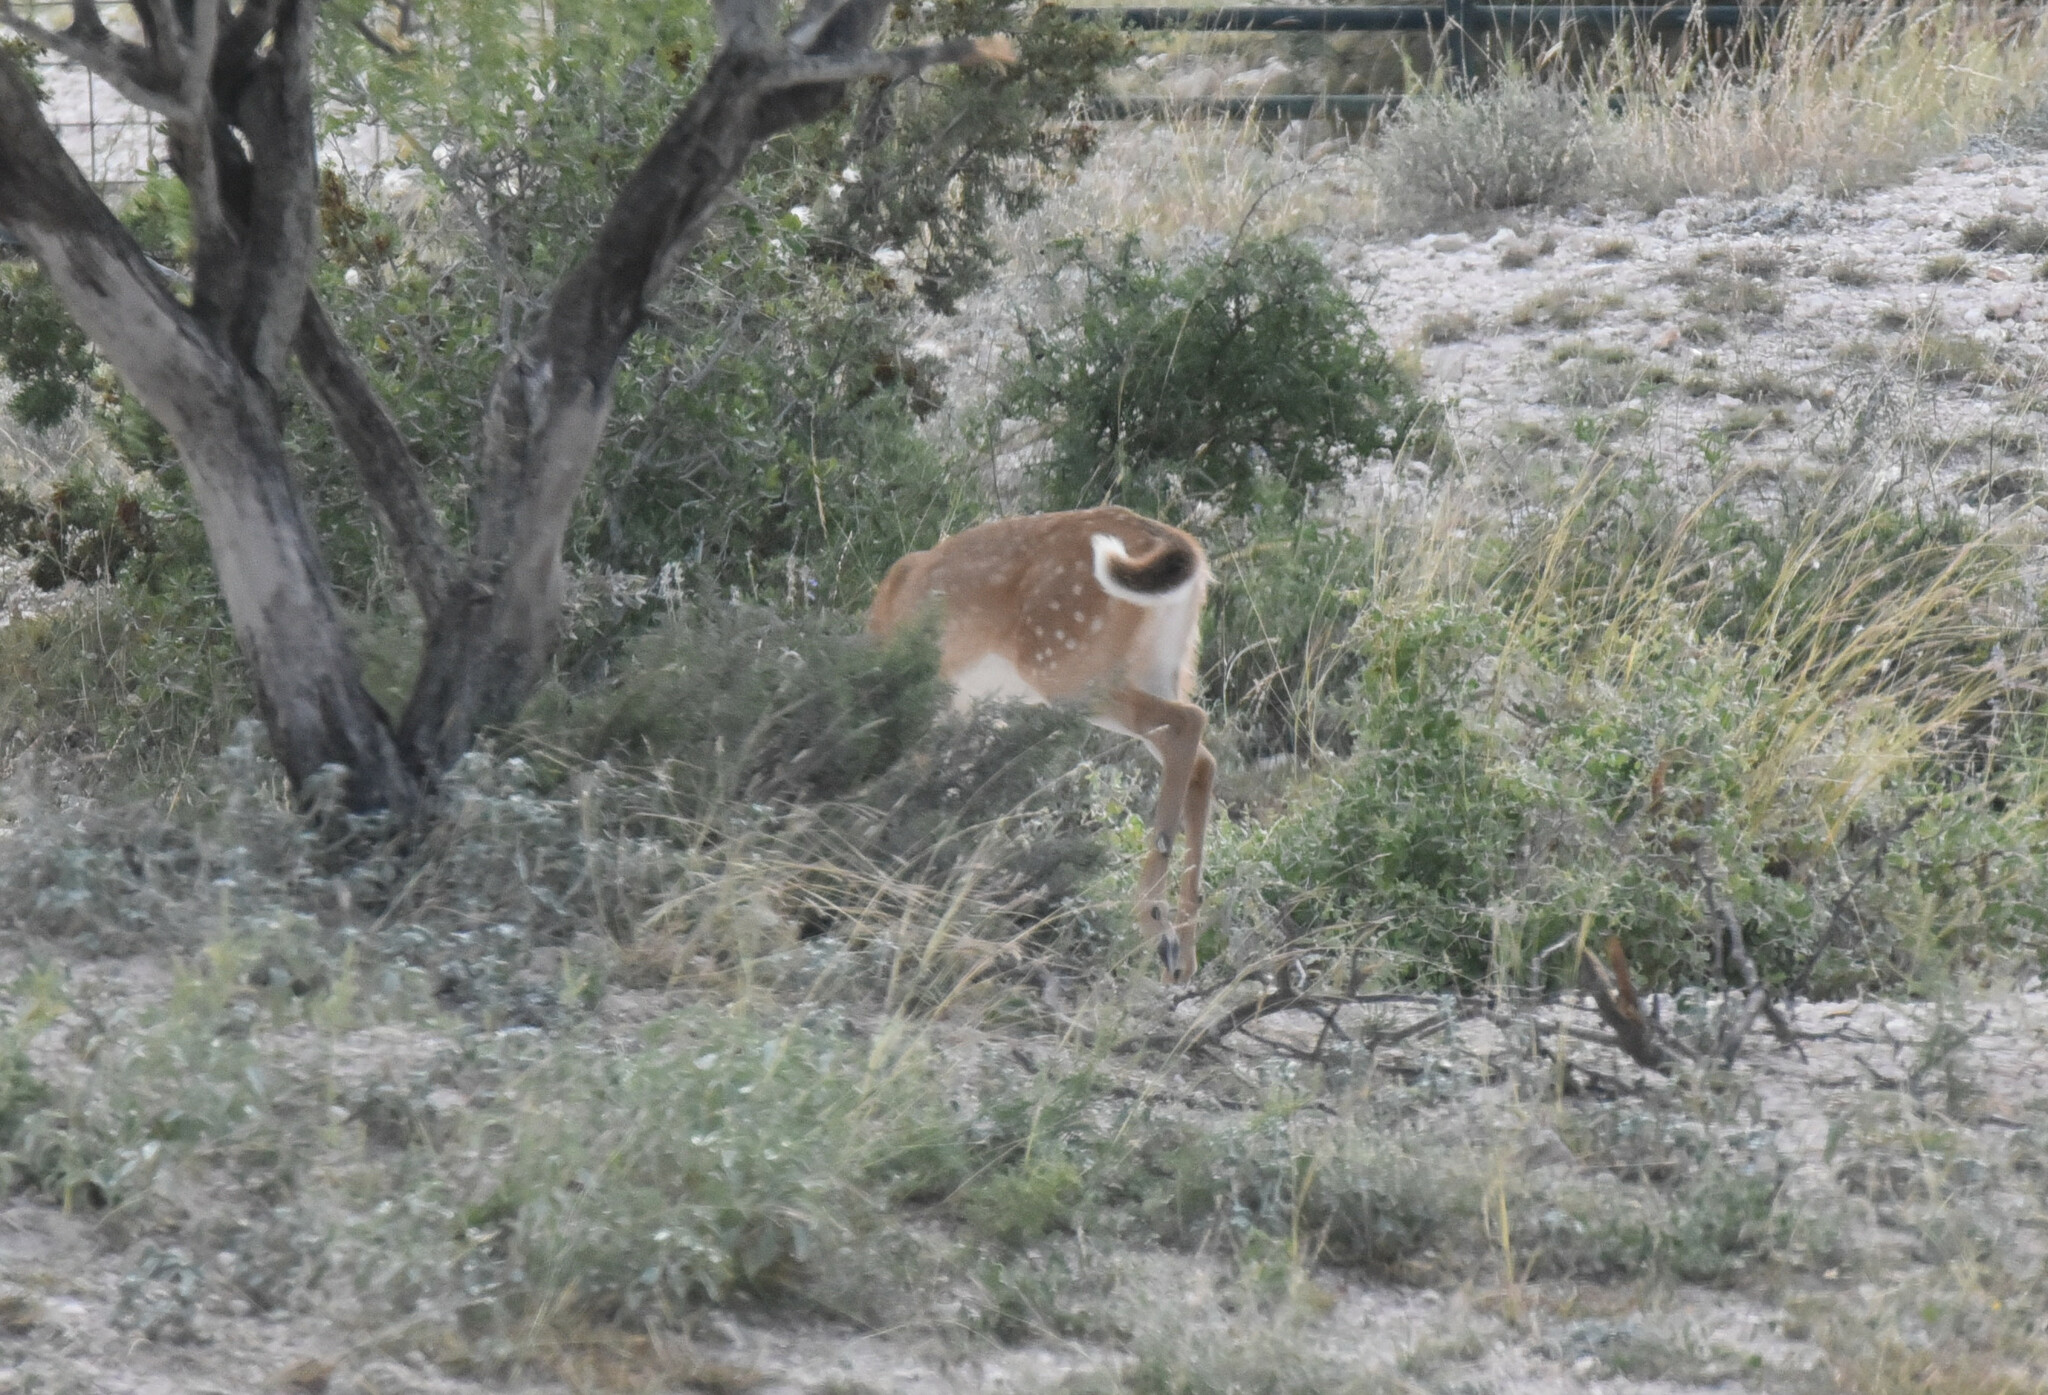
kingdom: Animalia
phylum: Chordata
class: Mammalia
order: Artiodactyla
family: Cervidae
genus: Odocoileus
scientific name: Odocoileus virginianus
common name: White-tailed deer
